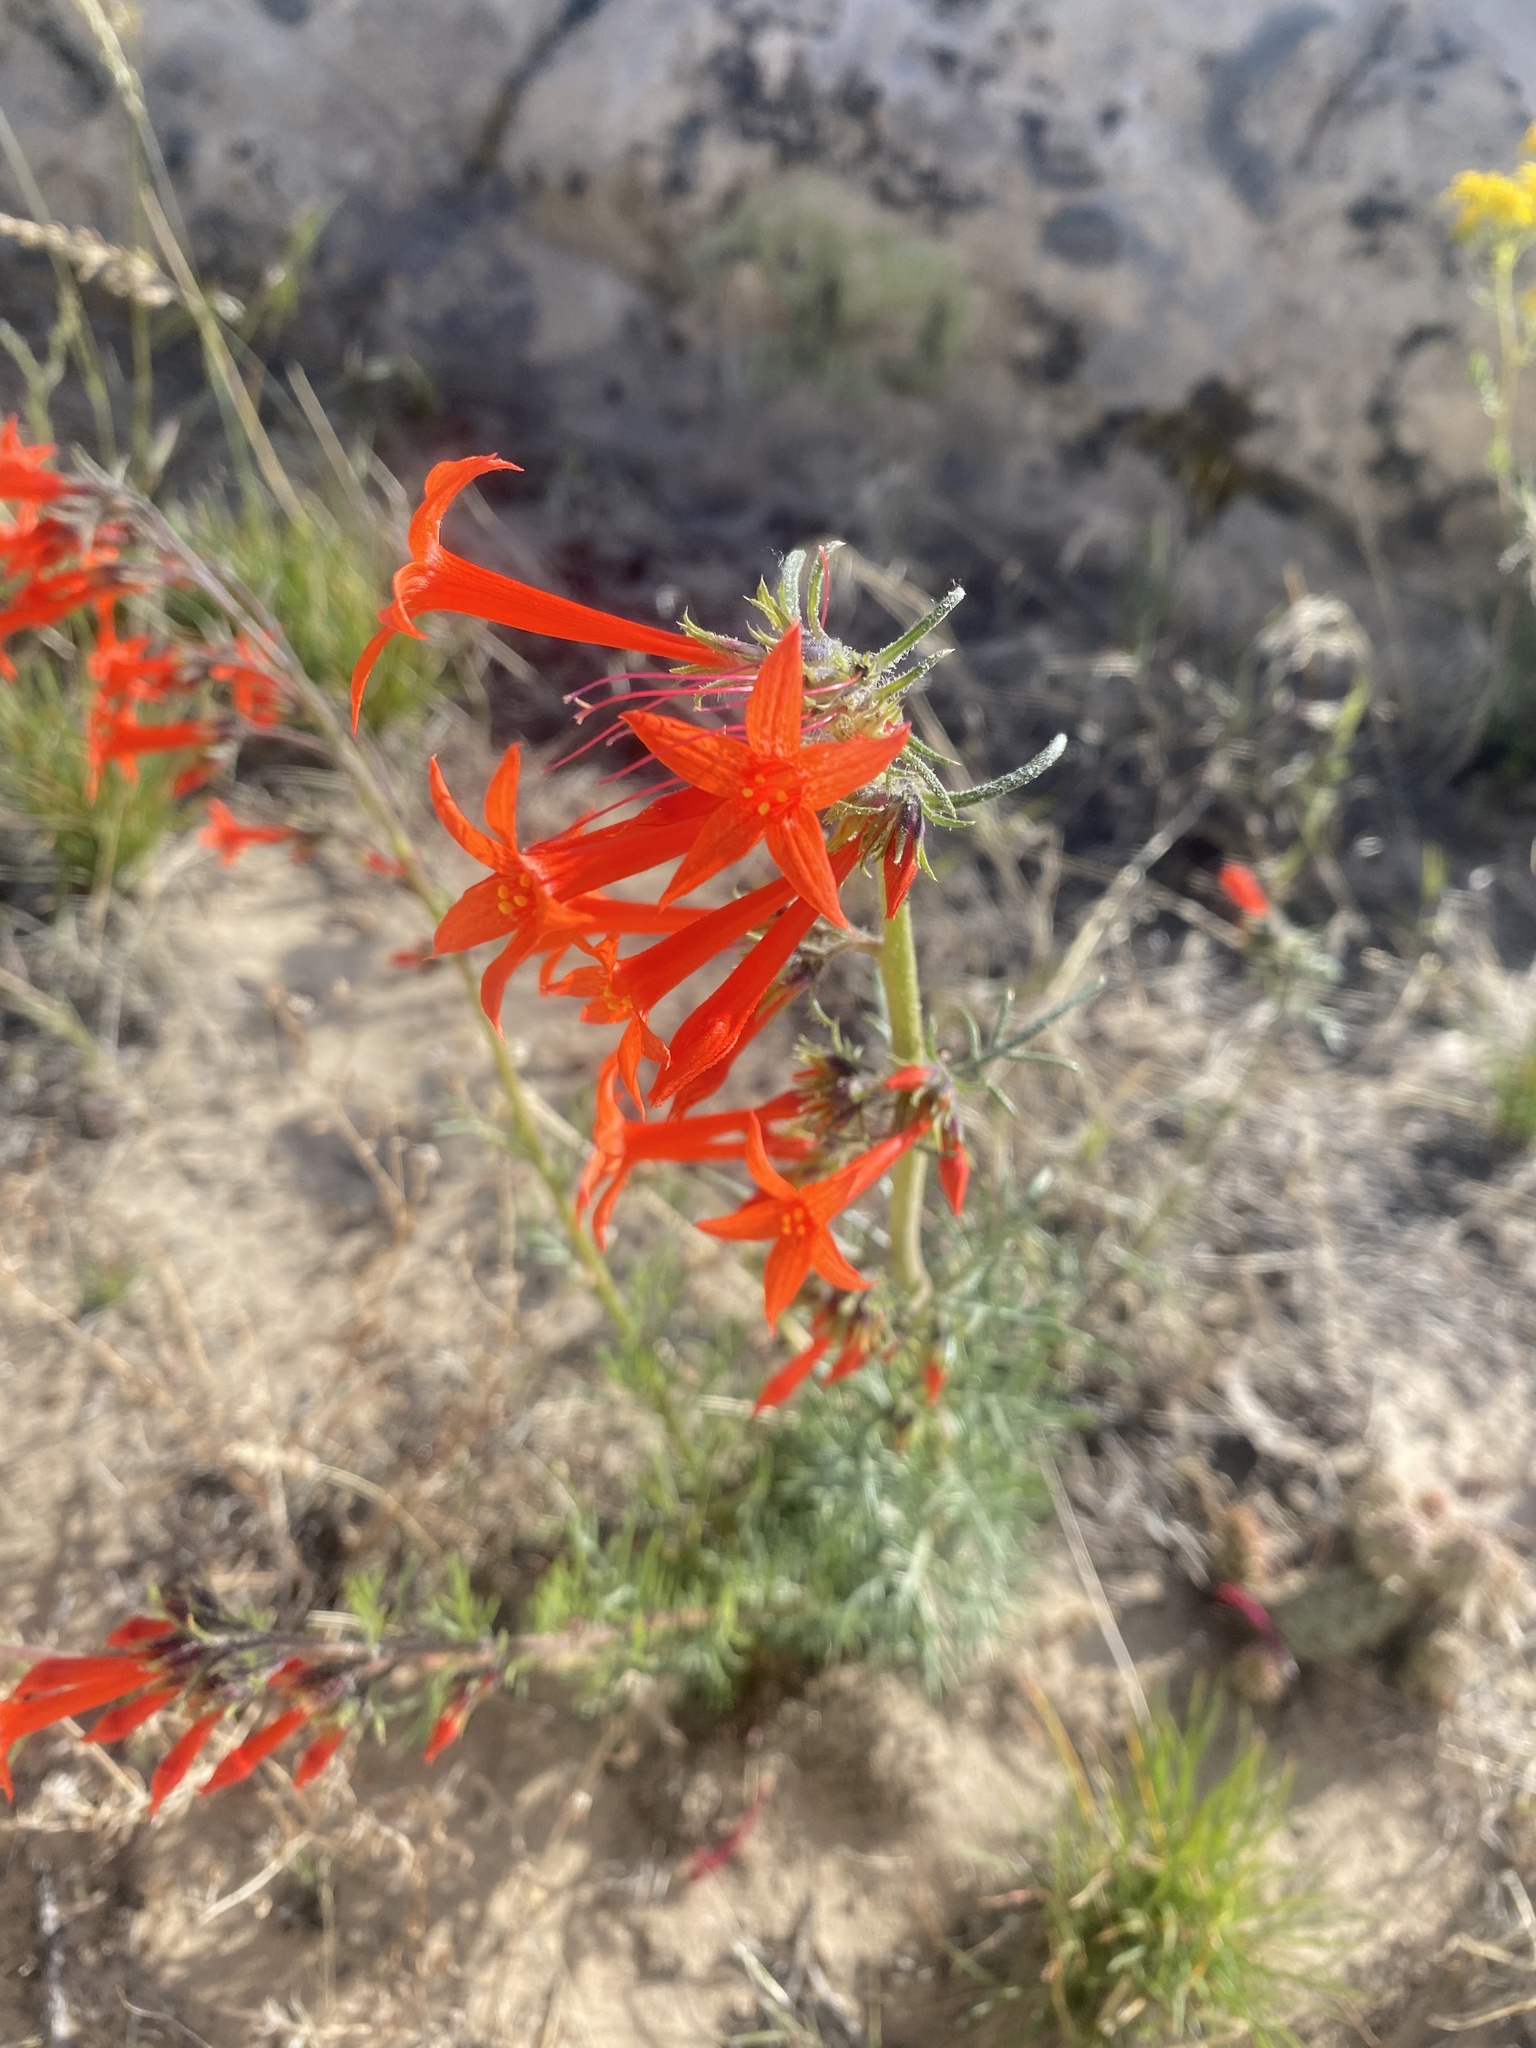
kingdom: Plantae
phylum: Tracheophyta
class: Magnoliopsida
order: Ericales
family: Polemoniaceae
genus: Ipomopsis
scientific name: Ipomopsis aggregata
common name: Scarlet gilia
